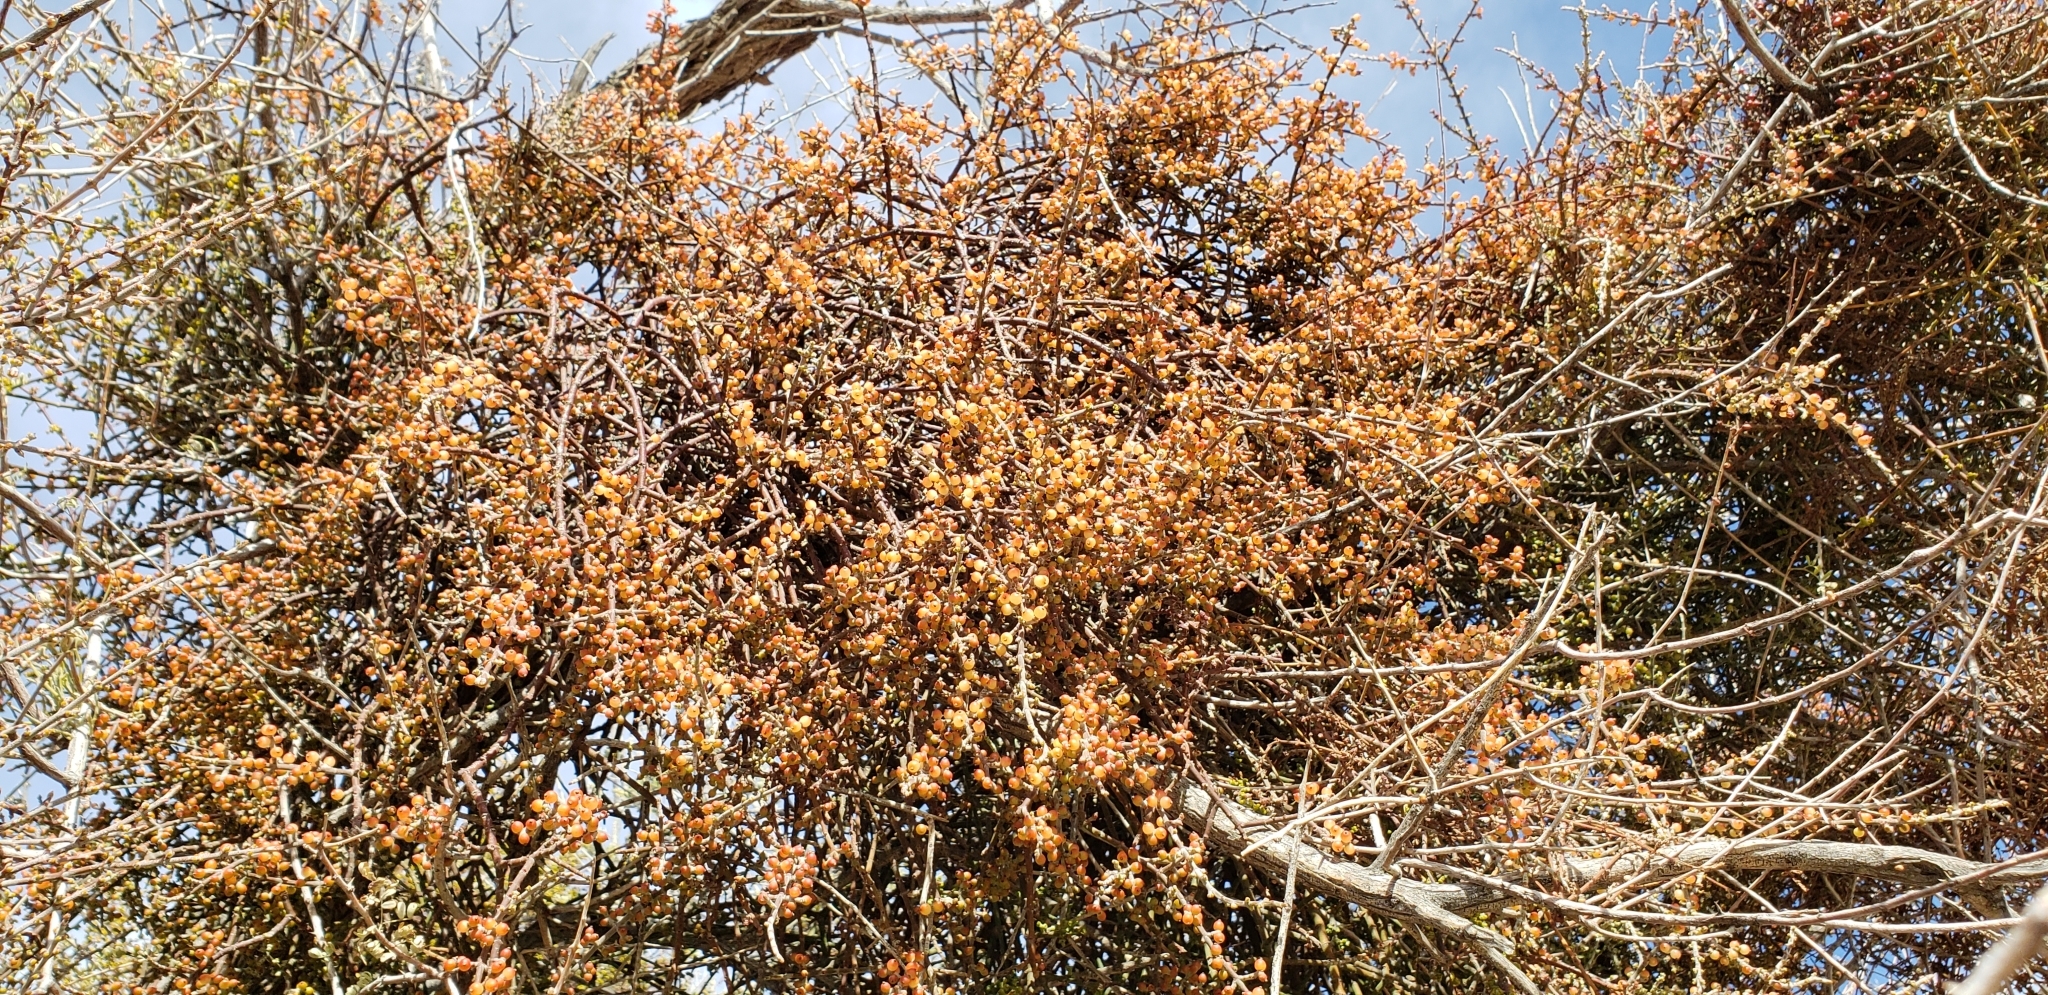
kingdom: Plantae
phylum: Tracheophyta
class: Magnoliopsida
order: Santalales
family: Viscaceae
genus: Phoradendron
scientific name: Phoradendron californicum
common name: Acacia mistletoe
